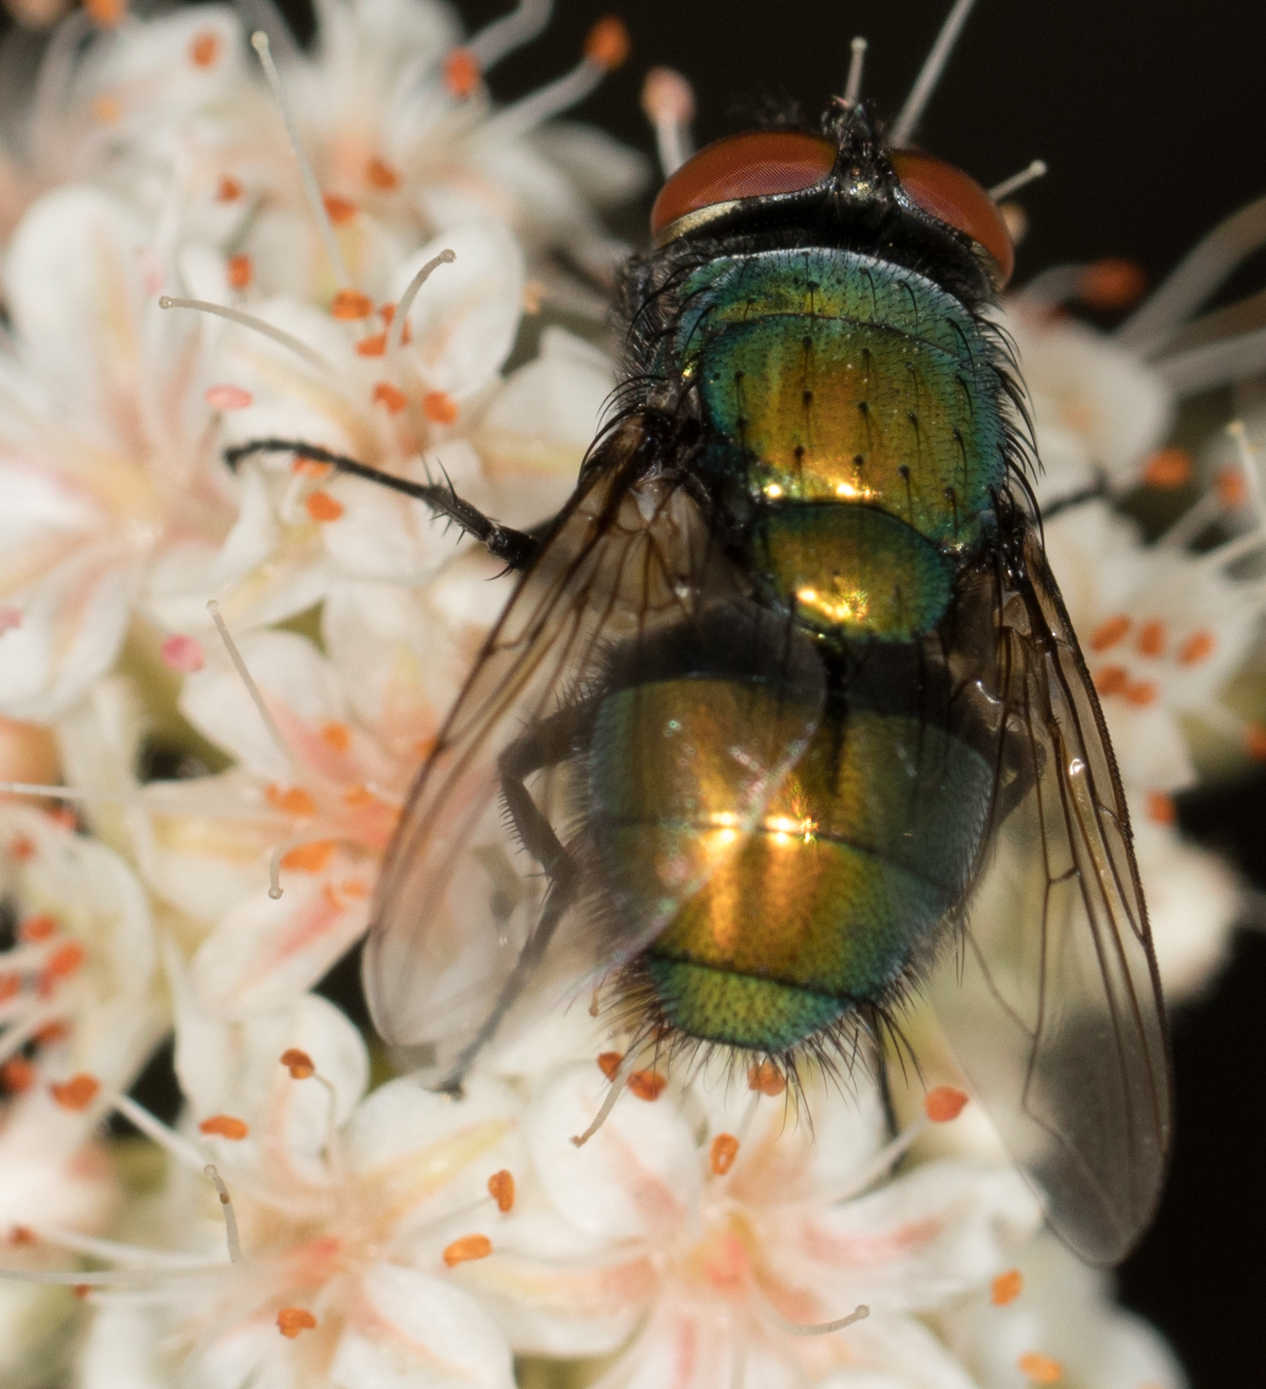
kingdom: Animalia
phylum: Arthropoda
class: Insecta
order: Diptera
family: Calliphoridae
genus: Lucilia
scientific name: Lucilia sericata
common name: Blow fly
